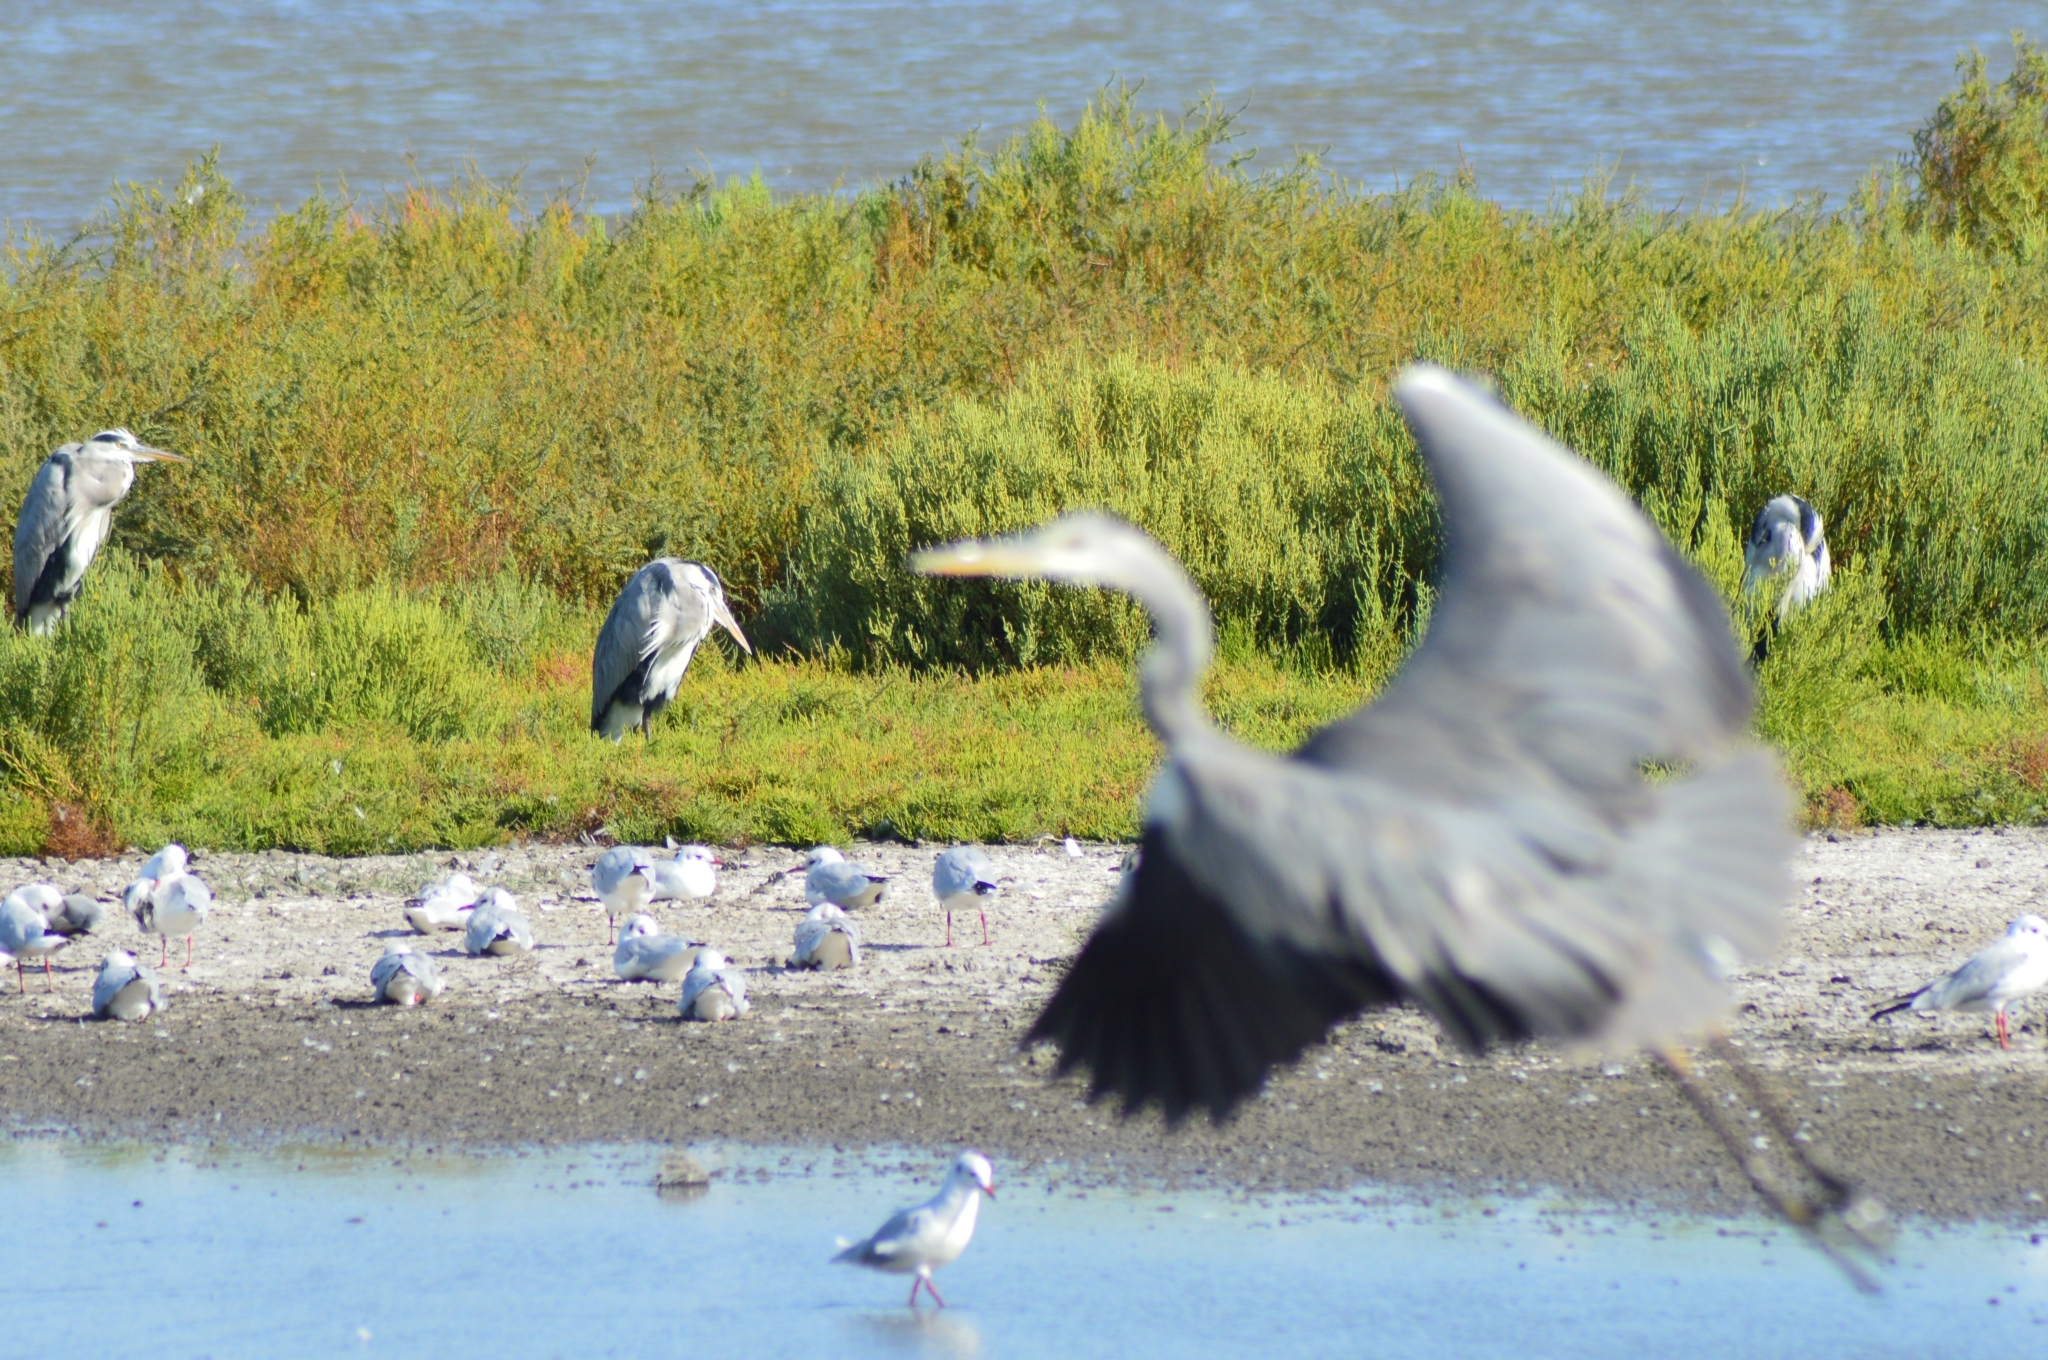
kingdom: Animalia
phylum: Chordata
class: Aves
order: Pelecaniformes
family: Ardeidae
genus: Ardea
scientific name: Ardea cinerea
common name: Grey heron
